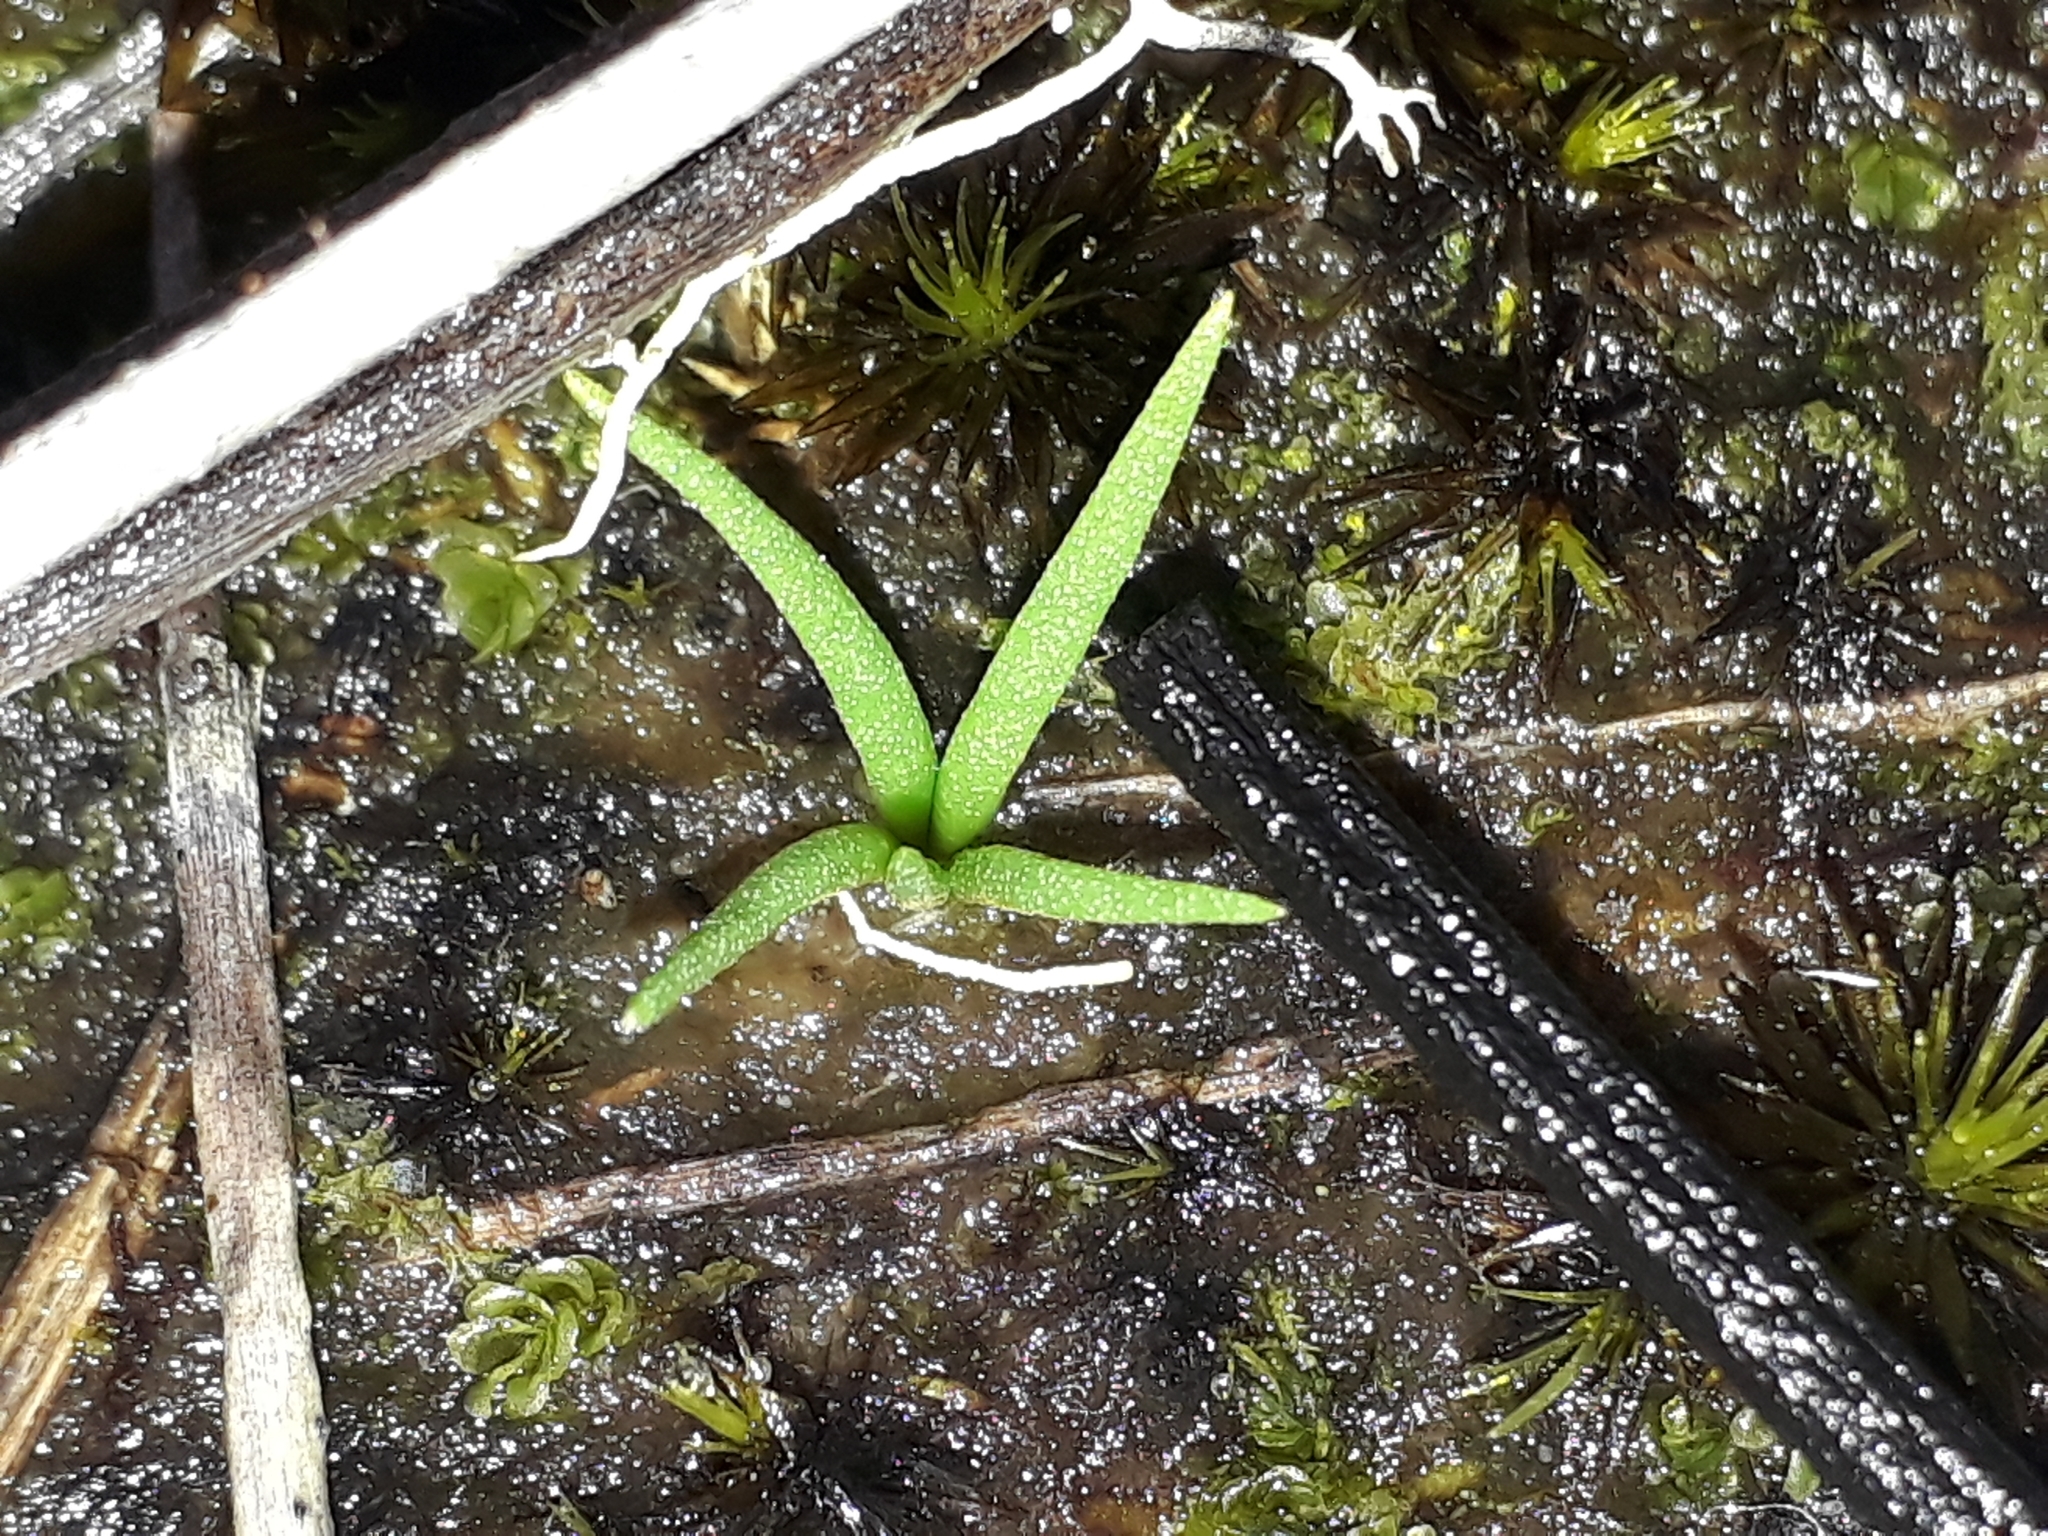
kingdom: Plantae
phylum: Tracheophyta
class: Lycopodiopsida
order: Lycopodiales
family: Lycopodiaceae
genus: Phylloglossum
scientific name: Phylloglossum drummondii
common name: Pigmy-club-moss
